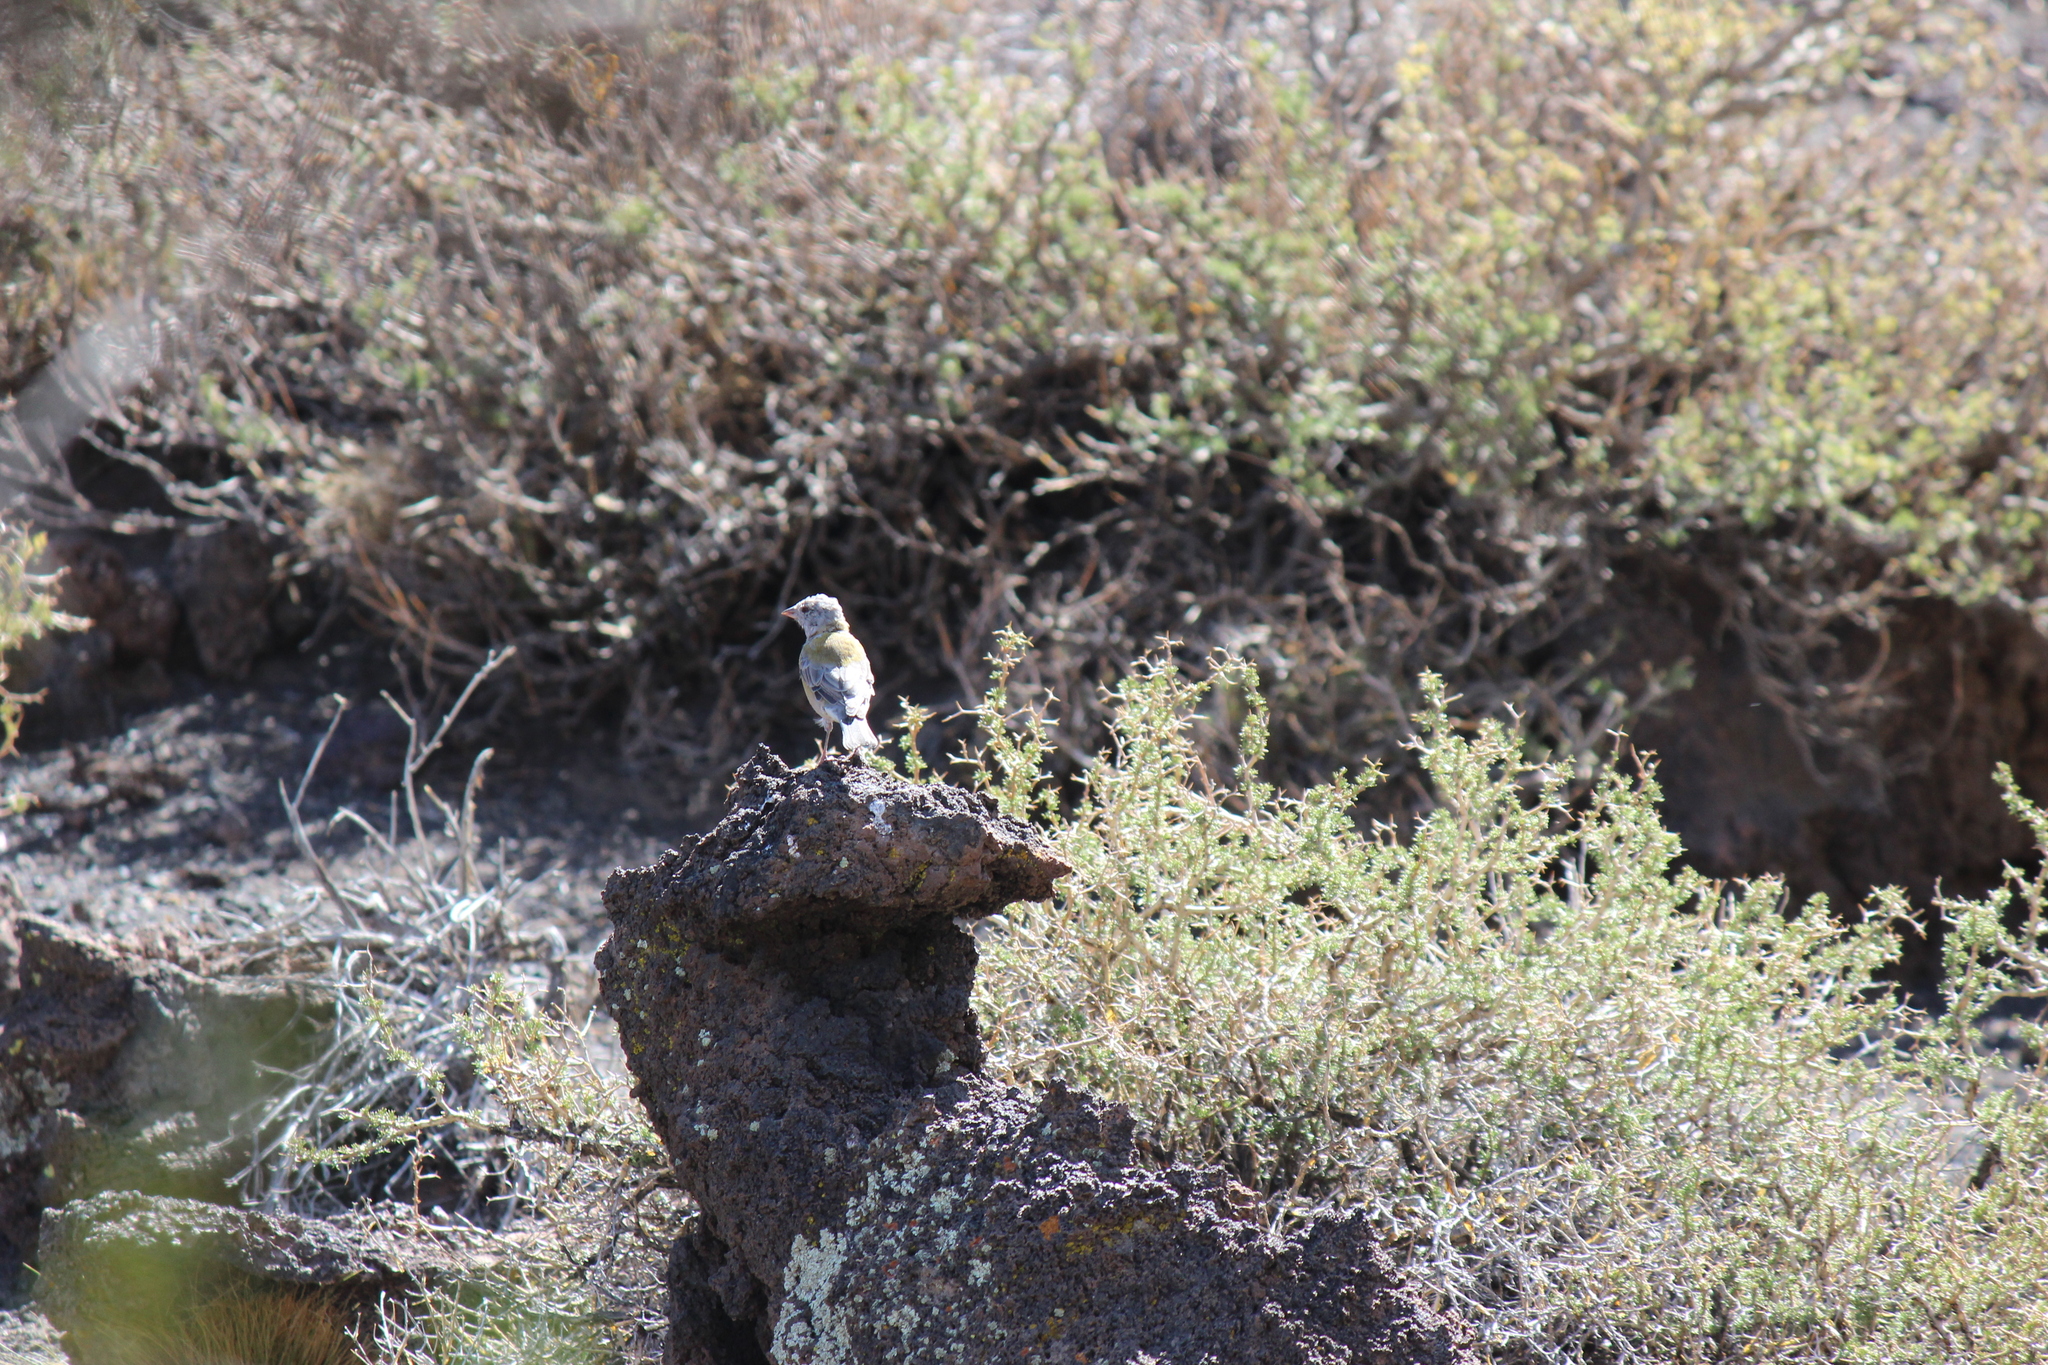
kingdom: Animalia
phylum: Chordata
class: Aves
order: Passeriformes
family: Thraupidae
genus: Phrygilus
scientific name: Phrygilus gayi
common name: Grey-hooded sierra finch
